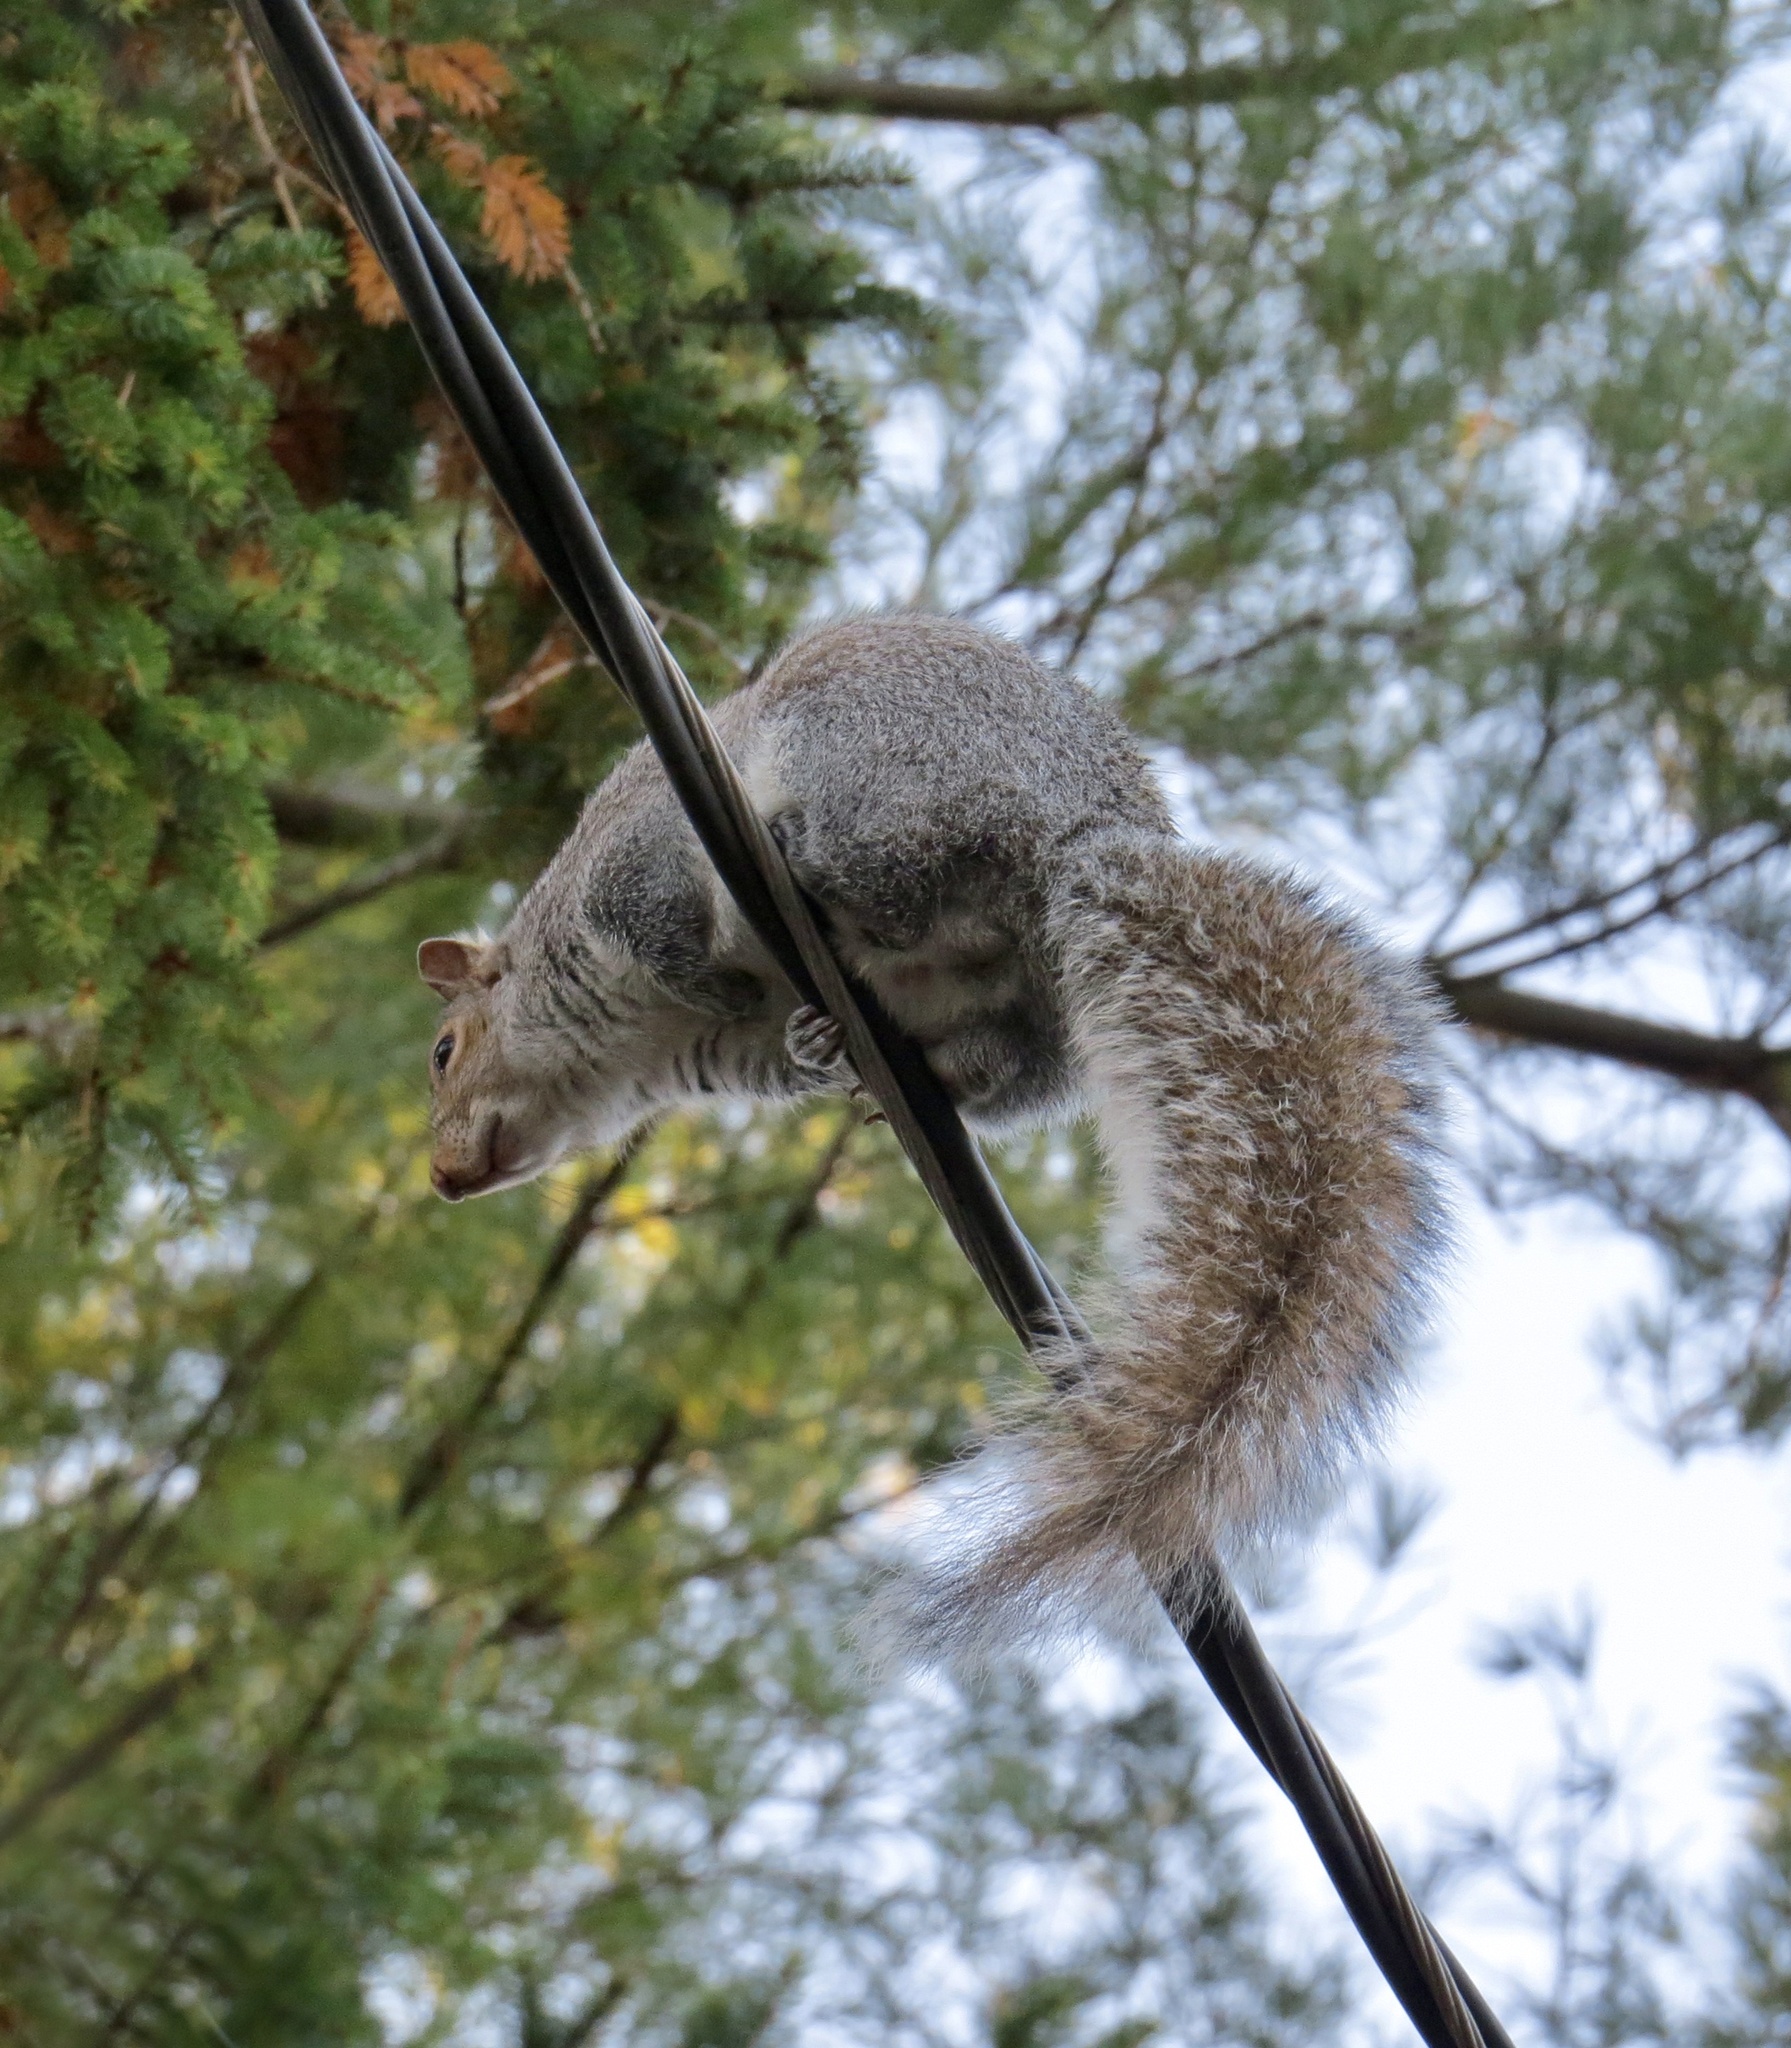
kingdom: Animalia
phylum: Chordata
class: Mammalia
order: Rodentia
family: Sciuridae
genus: Sciurus
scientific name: Sciurus carolinensis
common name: Eastern gray squirrel
